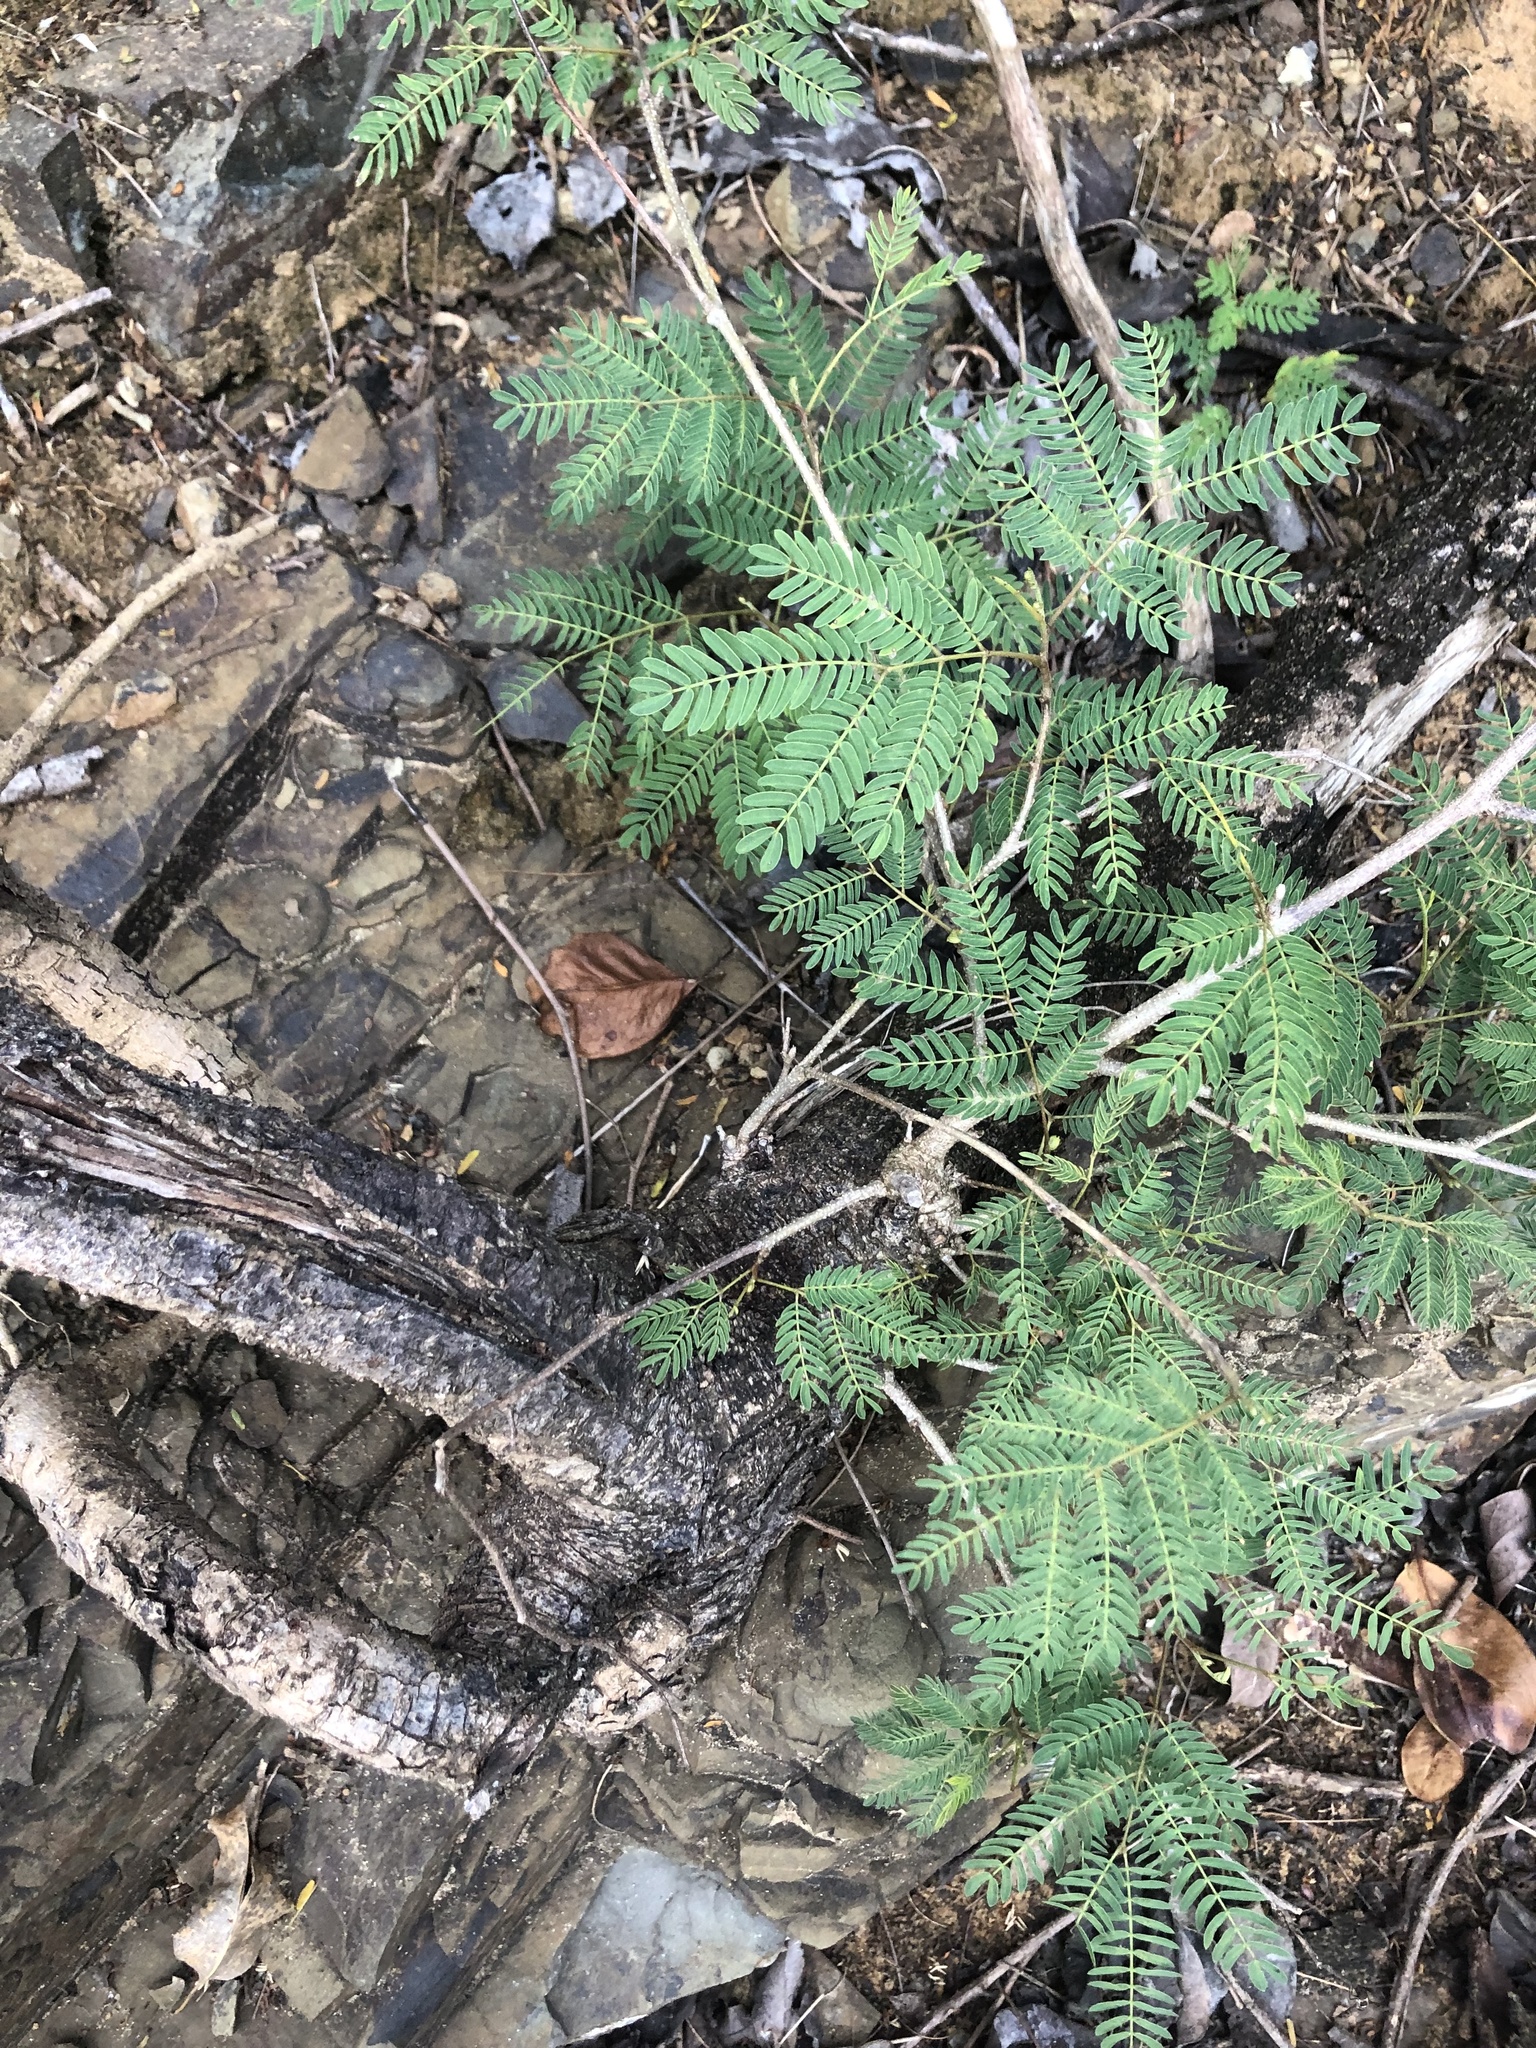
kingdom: Plantae
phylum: Tracheophyta
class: Magnoliopsida
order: Fabales
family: Fabaceae
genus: Leucaena
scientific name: Leucaena leucocephala
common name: White leadtree
